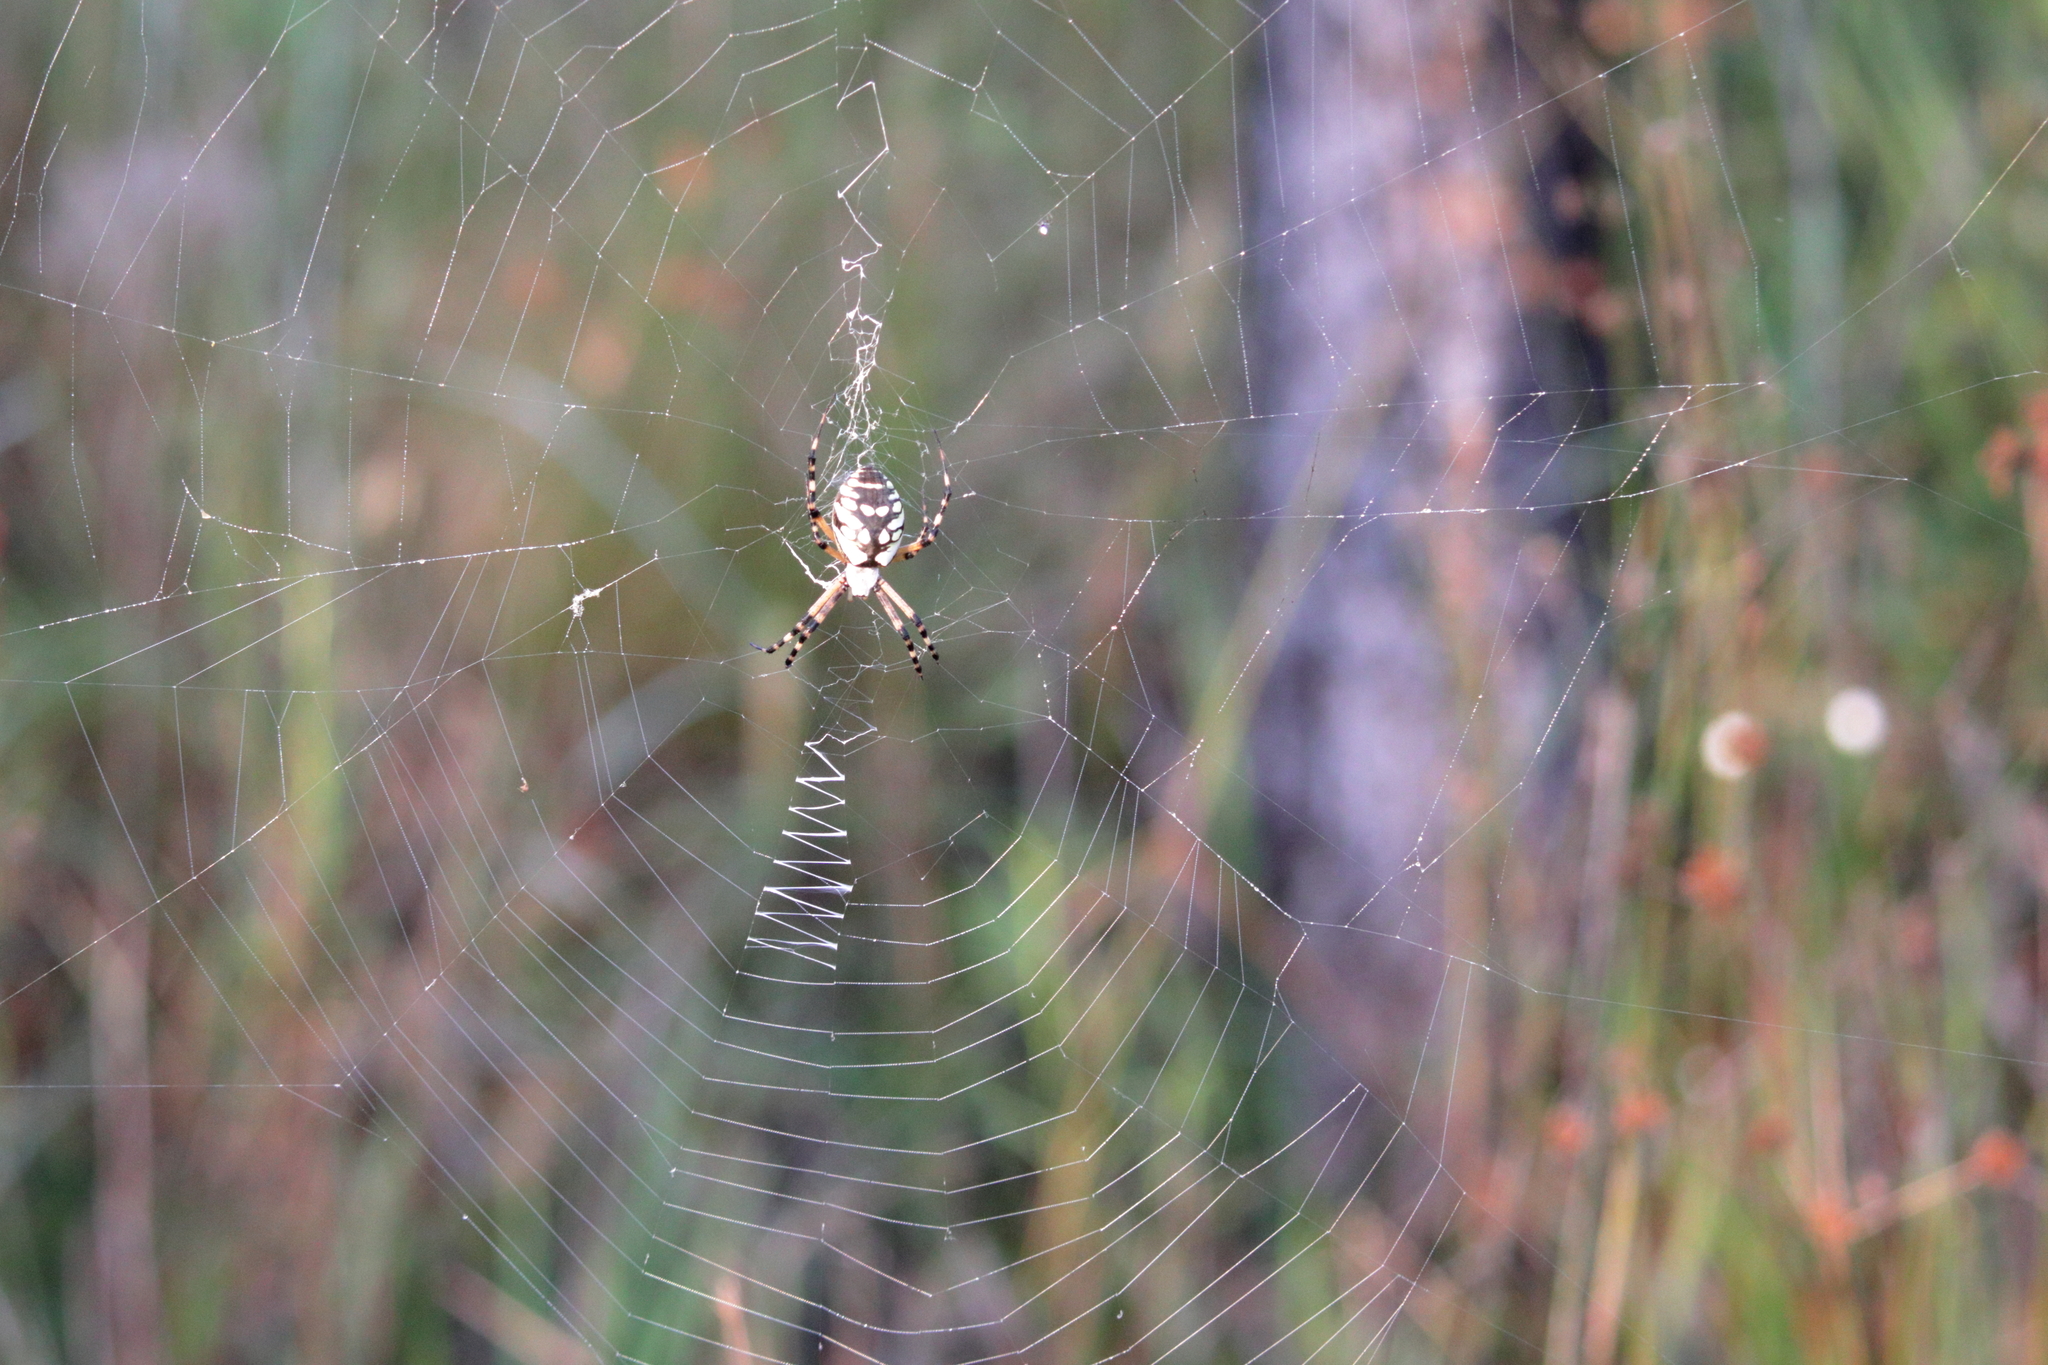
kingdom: Animalia
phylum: Arthropoda
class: Arachnida
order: Araneae
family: Araneidae
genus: Argiope
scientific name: Argiope aurantia
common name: Orb weavers
